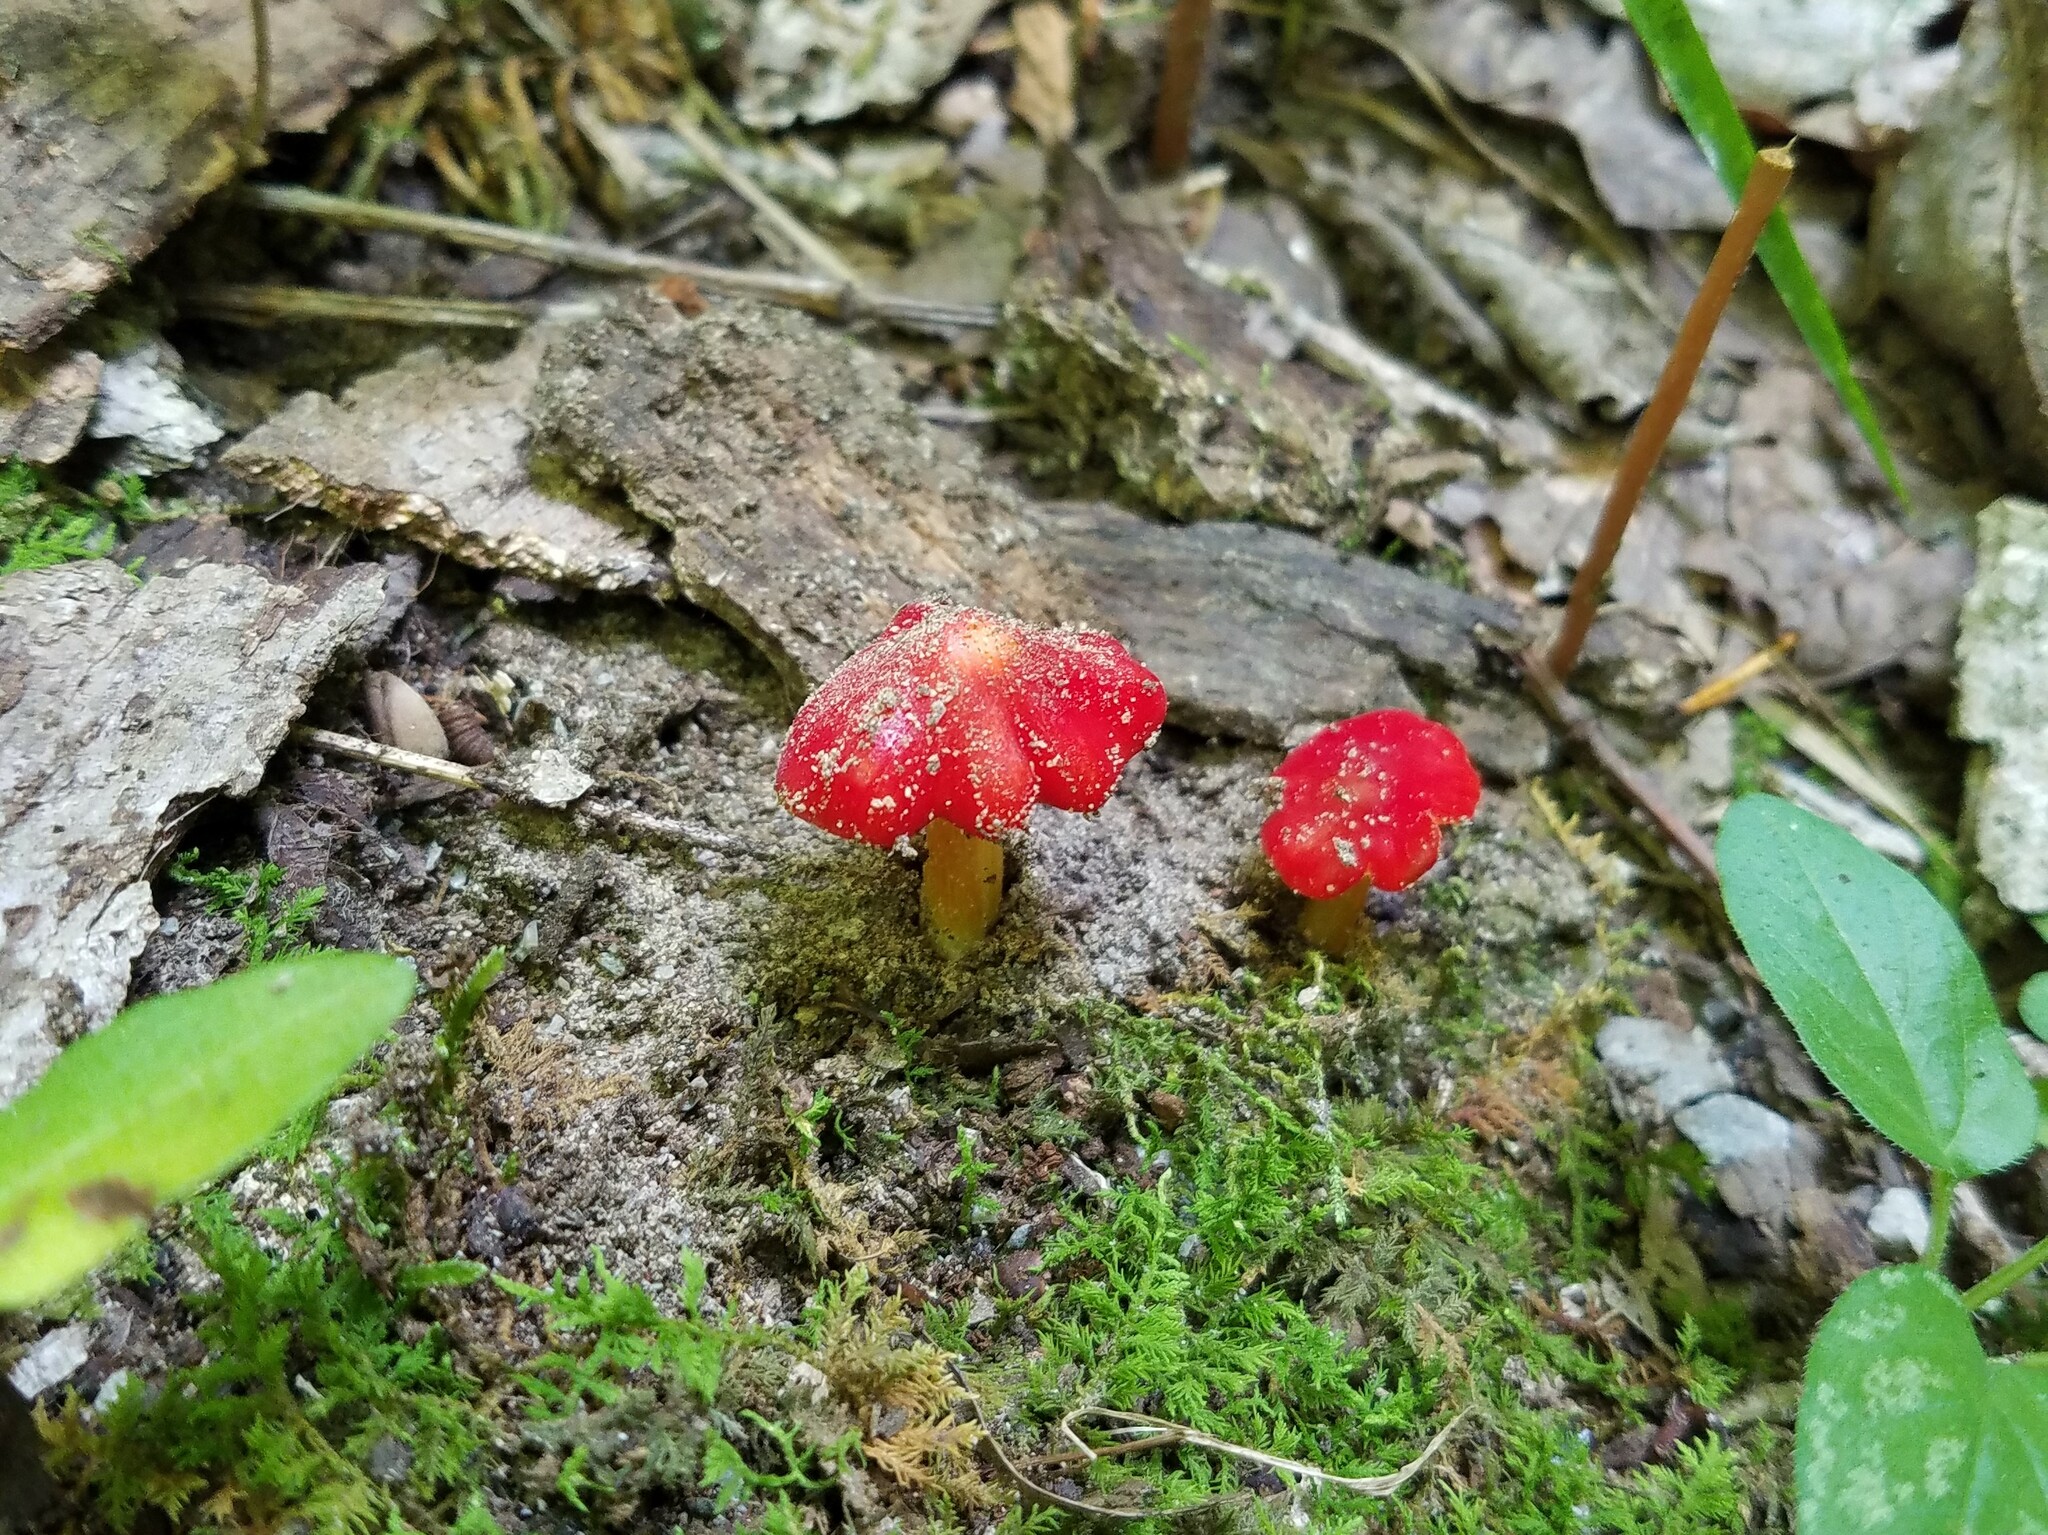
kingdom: Fungi
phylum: Basidiomycota
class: Agaricomycetes
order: Agaricales
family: Hygrophoraceae
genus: Hygrocybe
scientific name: Hygrocybe cuspidata
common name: Candy apple waxy cap
